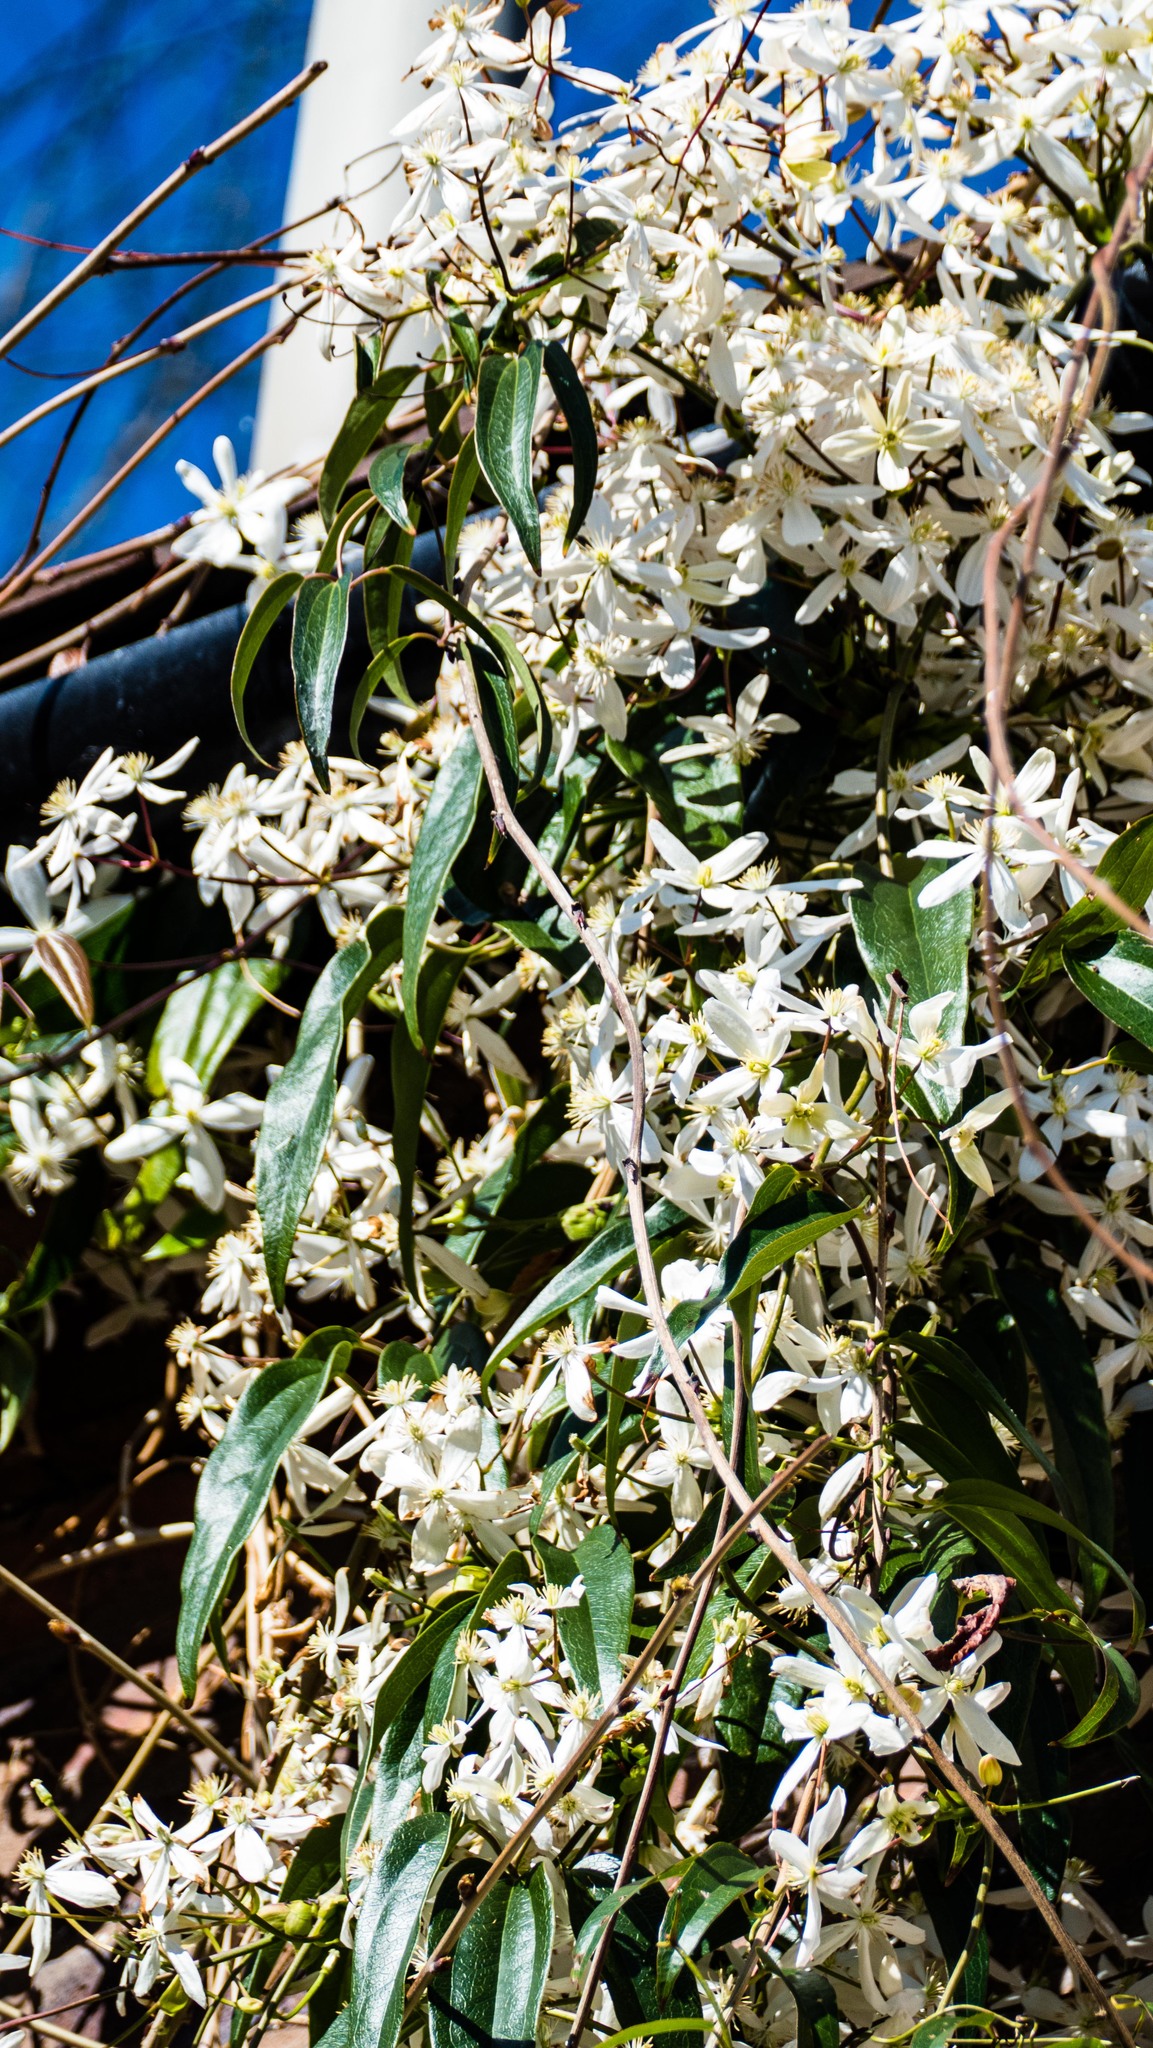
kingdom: Plantae
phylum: Tracheophyta
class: Magnoliopsida
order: Ranunculales
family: Ranunculaceae
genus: Clematis
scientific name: Clematis armandii
